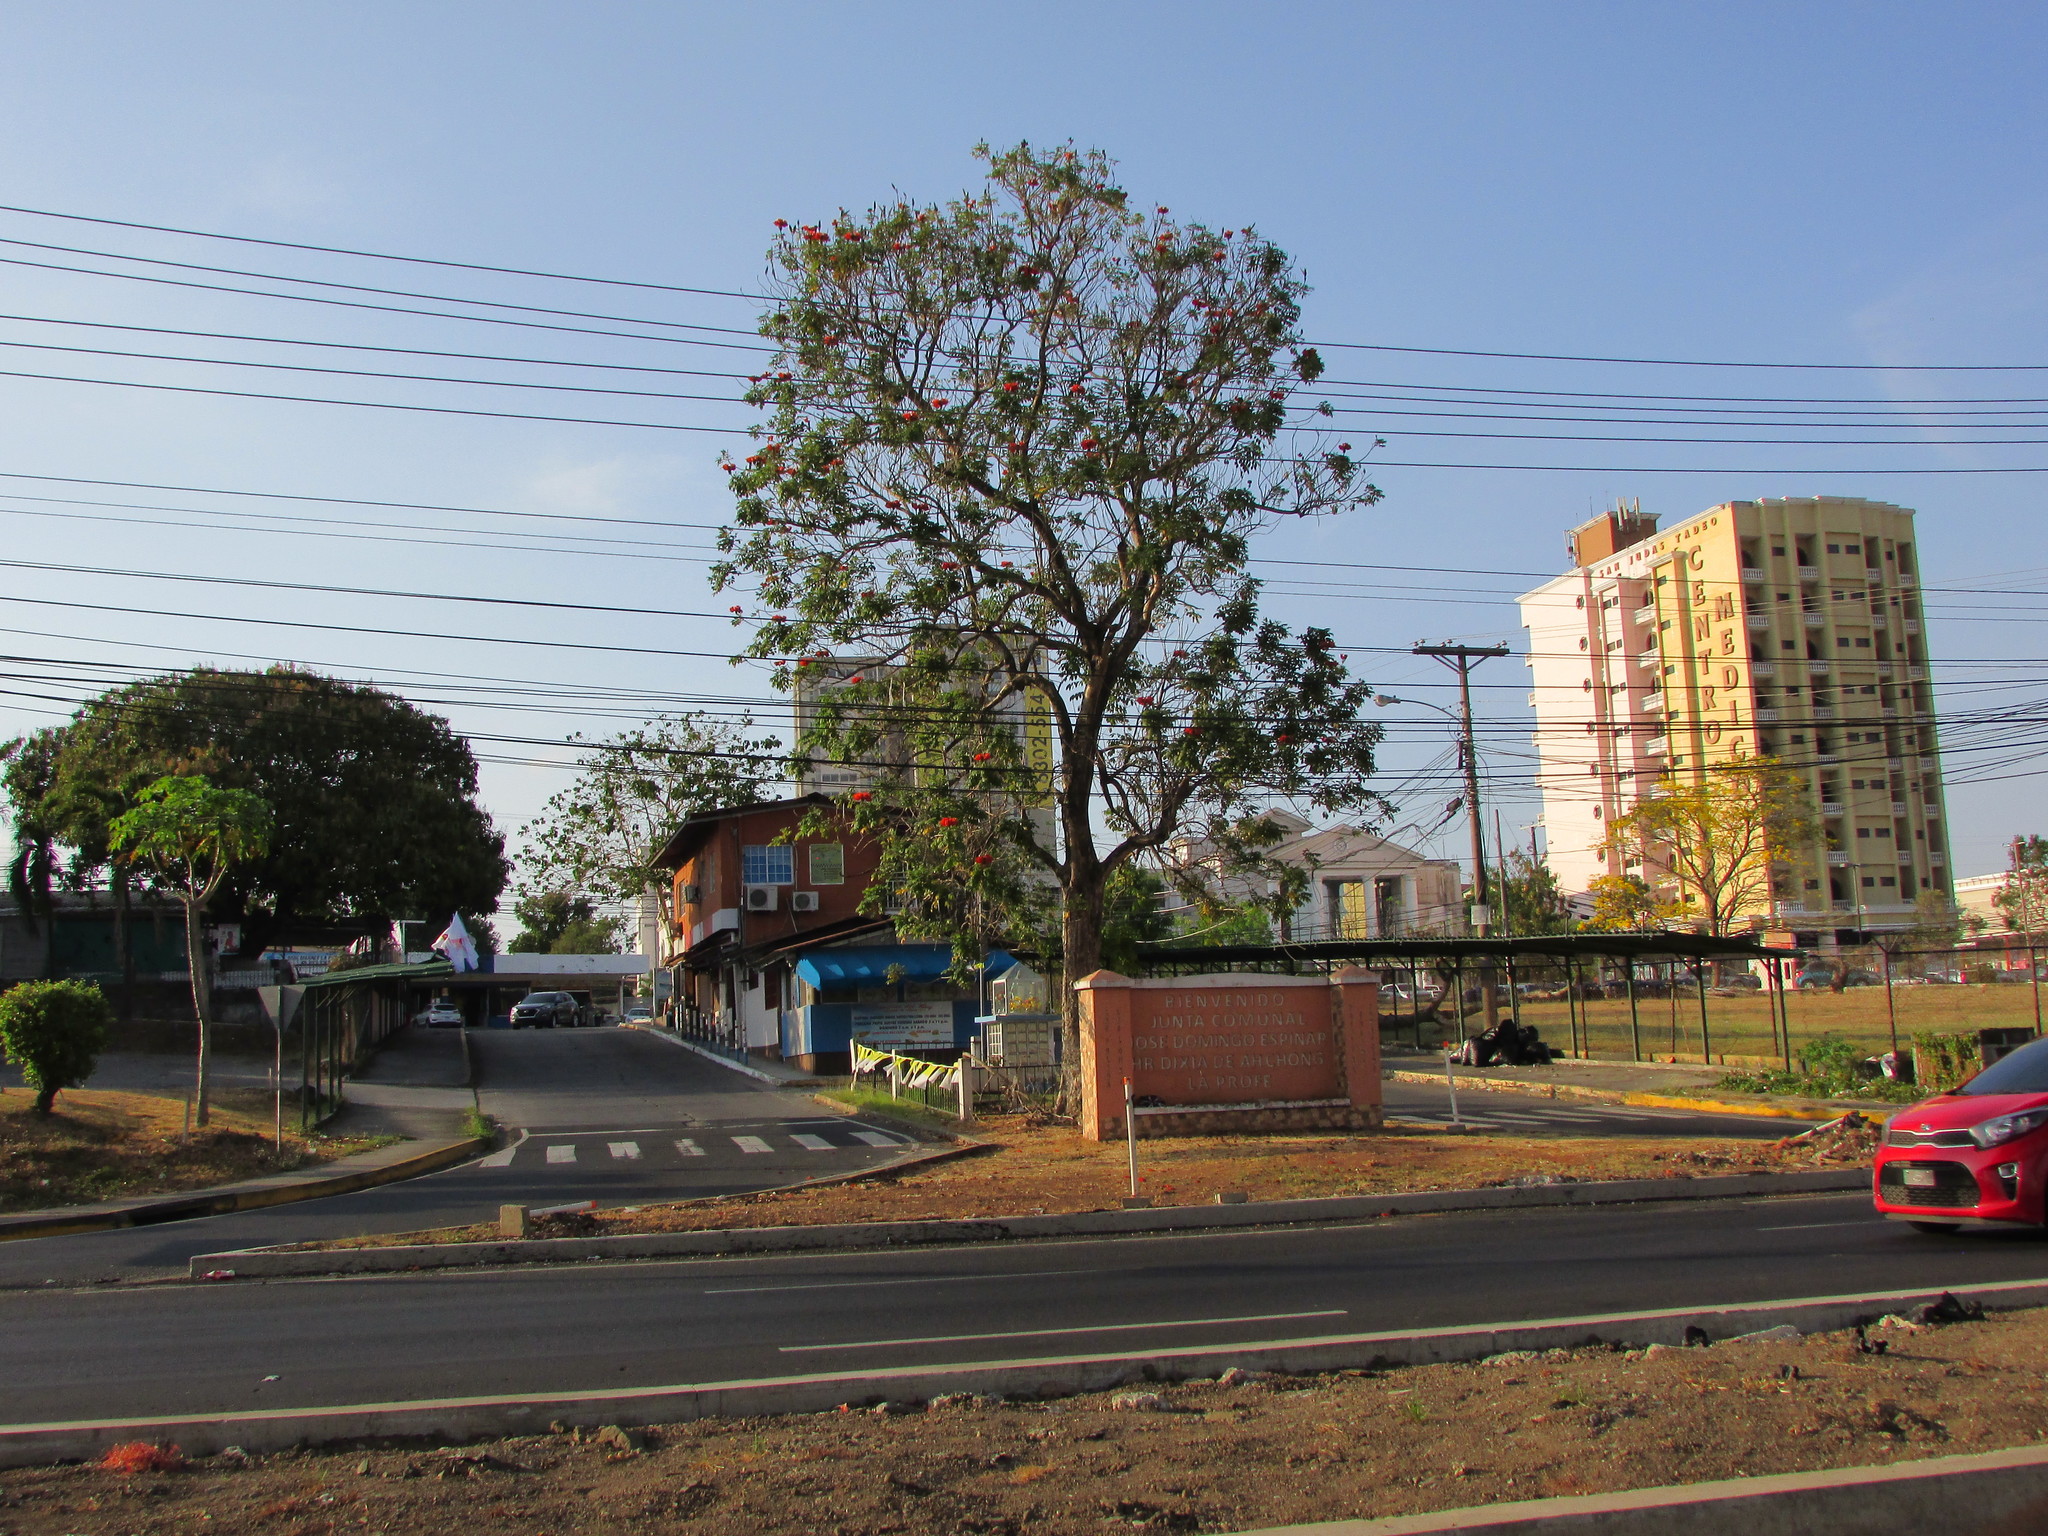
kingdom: Plantae
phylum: Tracheophyta
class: Magnoliopsida
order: Lamiales
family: Bignoniaceae
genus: Spathodea
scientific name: Spathodea campanulata
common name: African tuliptree
